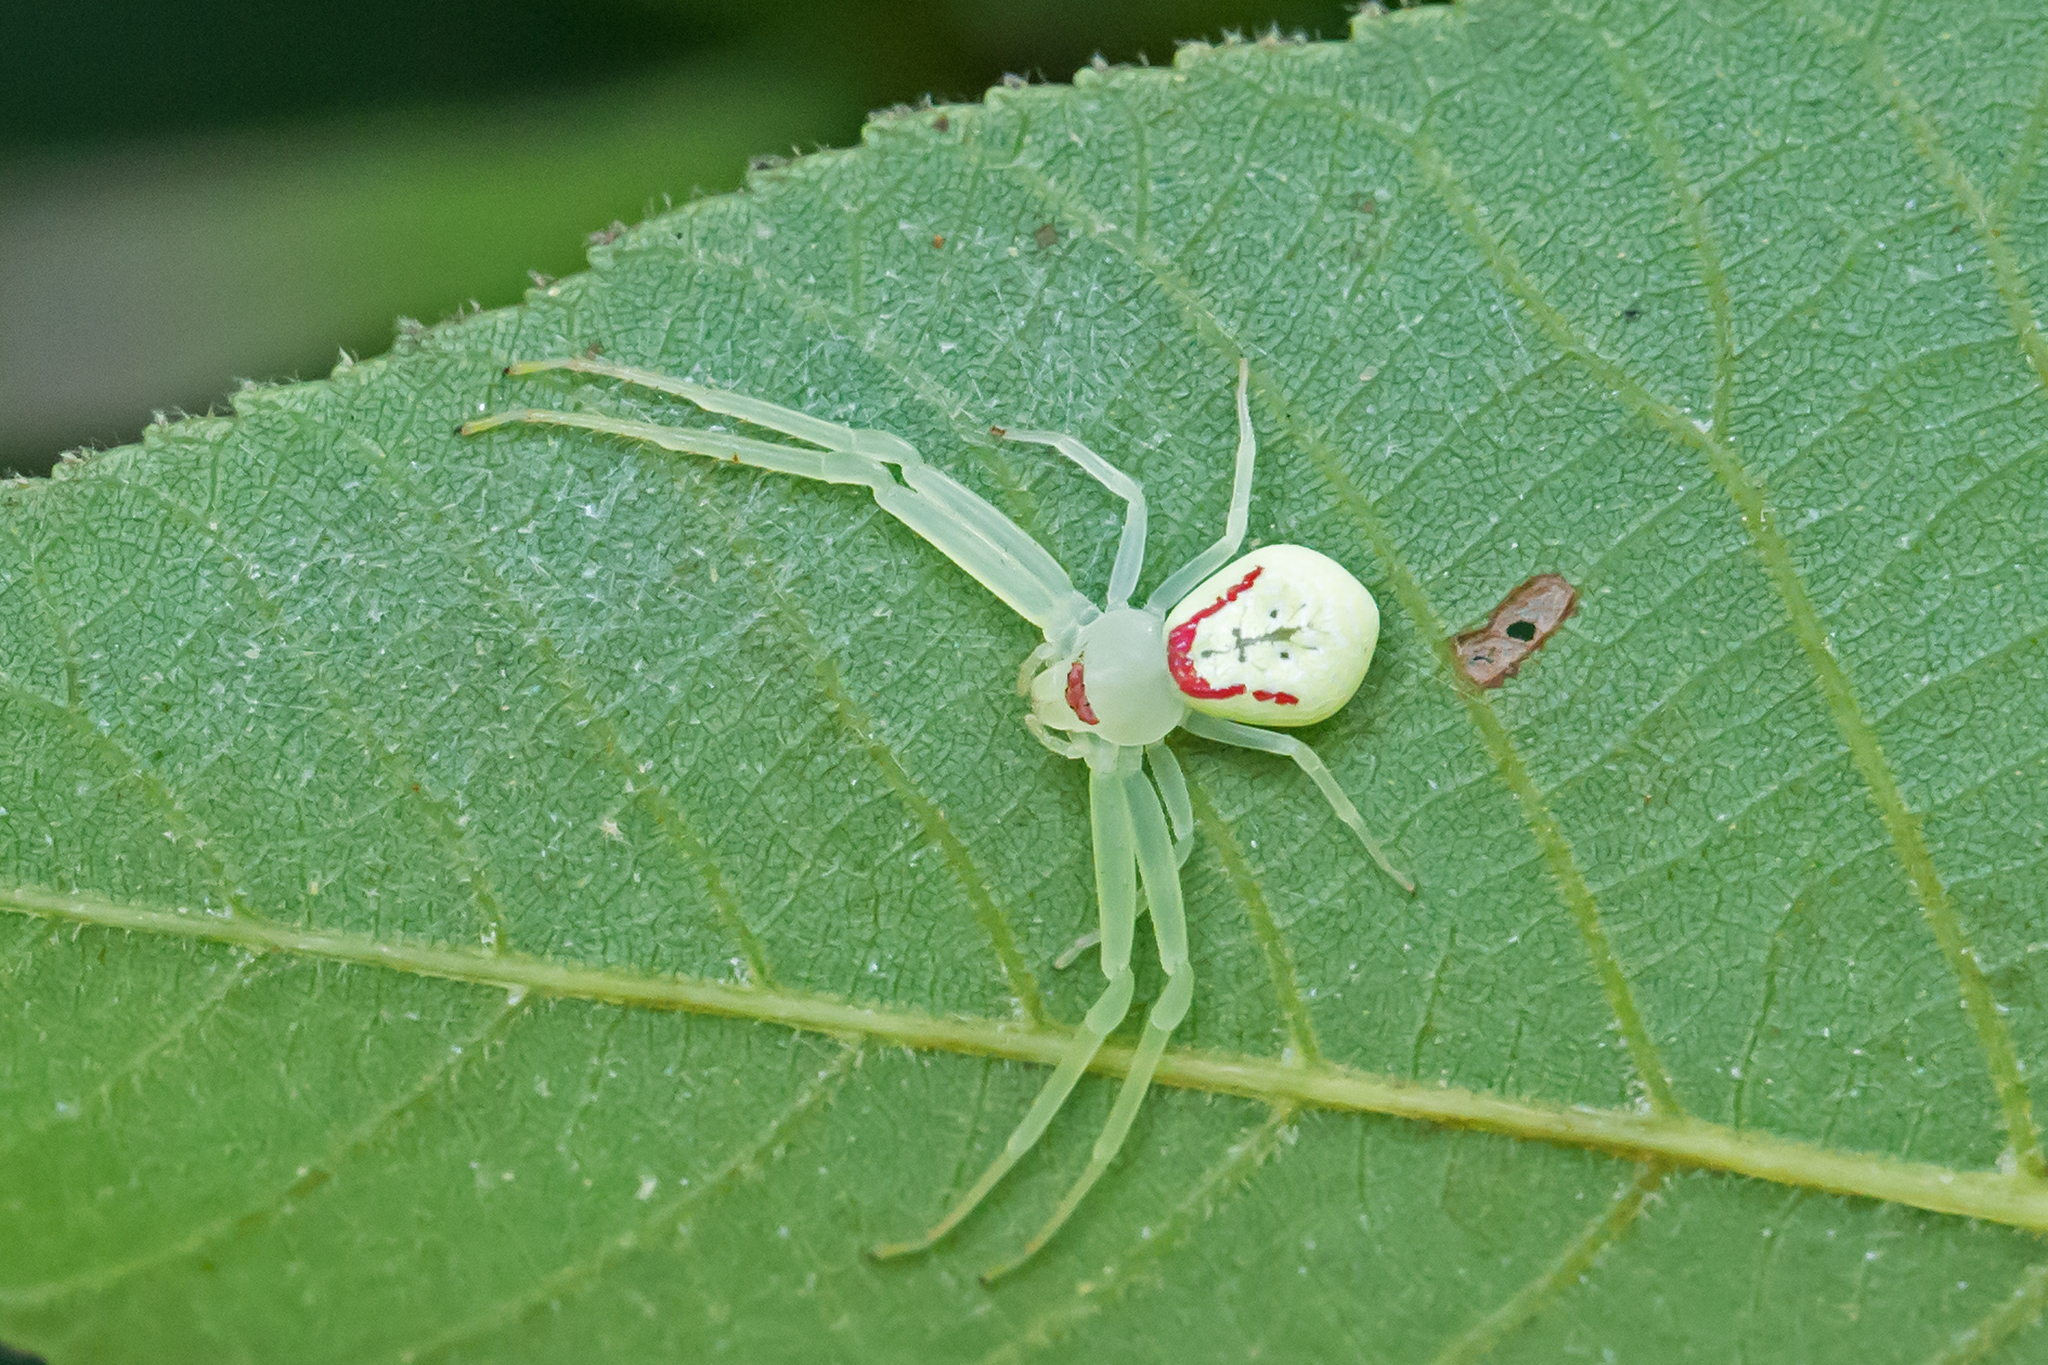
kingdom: Animalia
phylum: Arthropoda
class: Arachnida
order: Araneae
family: Thomisidae
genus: Misumessus
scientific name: Misumessus oblongus
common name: American green crab spider
